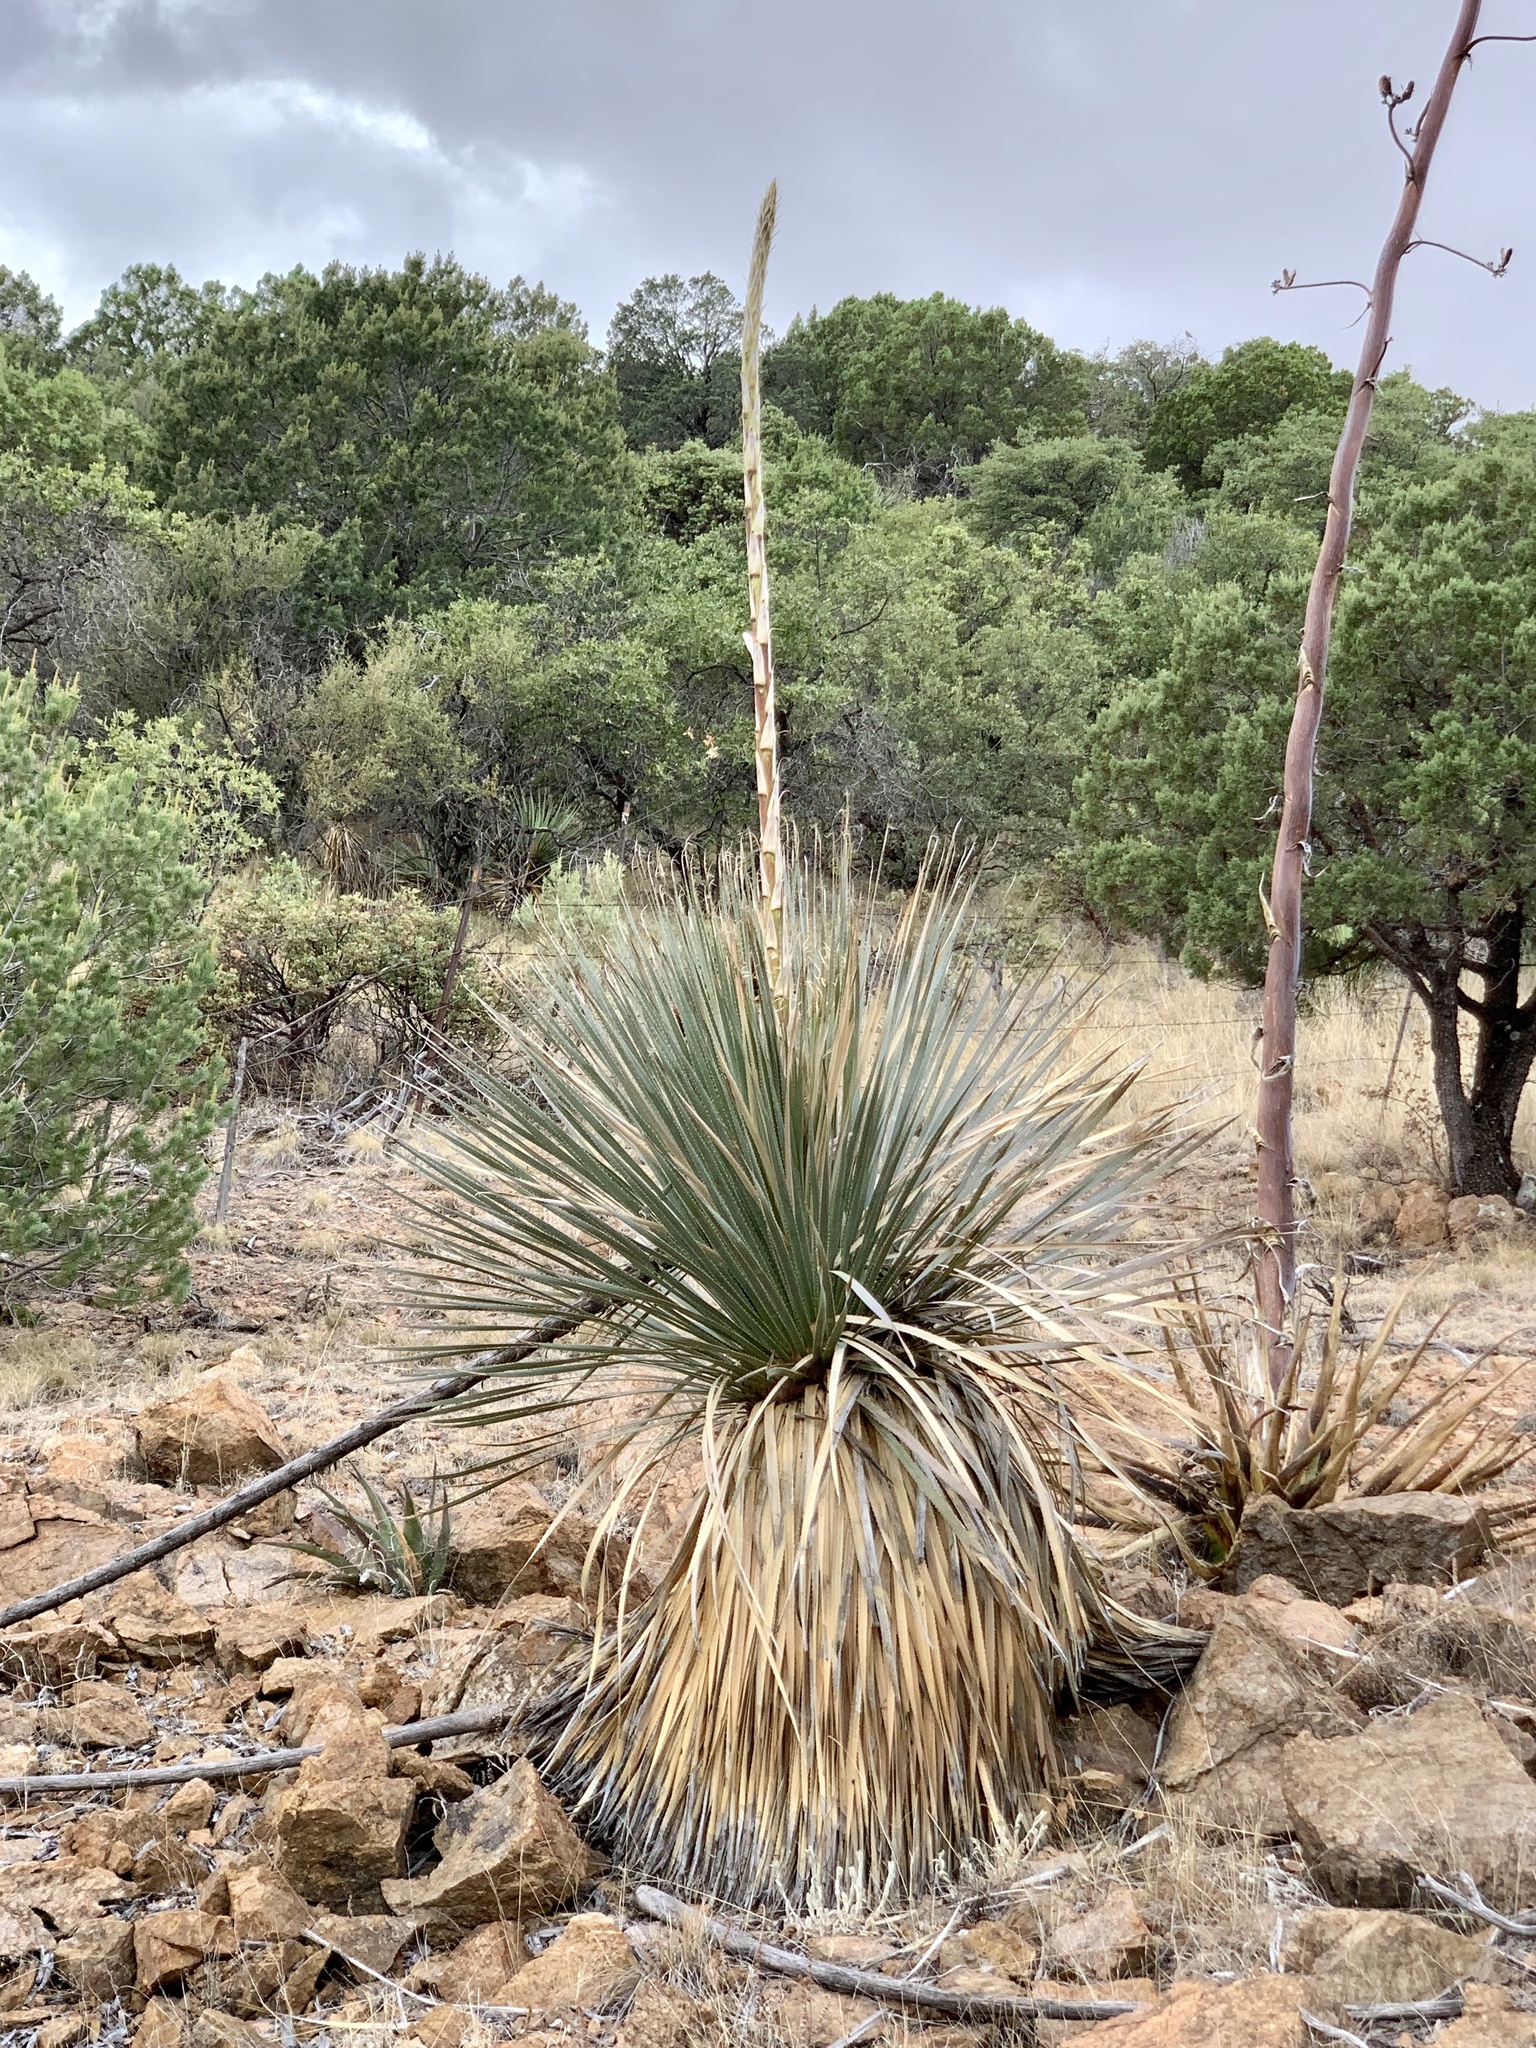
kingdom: Plantae
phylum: Tracheophyta
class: Liliopsida
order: Asparagales
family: Asparagaceae
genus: Dasylirion
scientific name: Dasylirion wheeleri
